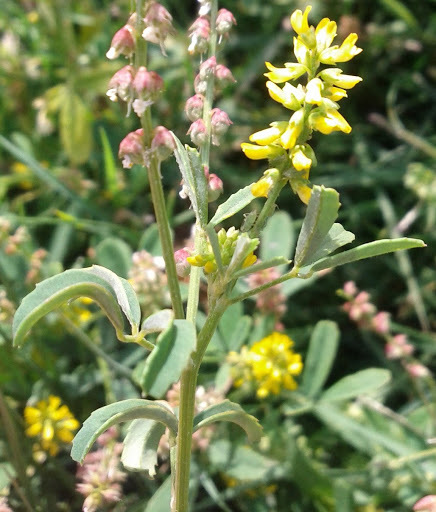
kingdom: Plantae
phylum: Tracheophyta
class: Magnoliopsida
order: Fabales
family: Fabaceae
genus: Melilotus
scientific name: Melilotus indicus
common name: Small melilot
